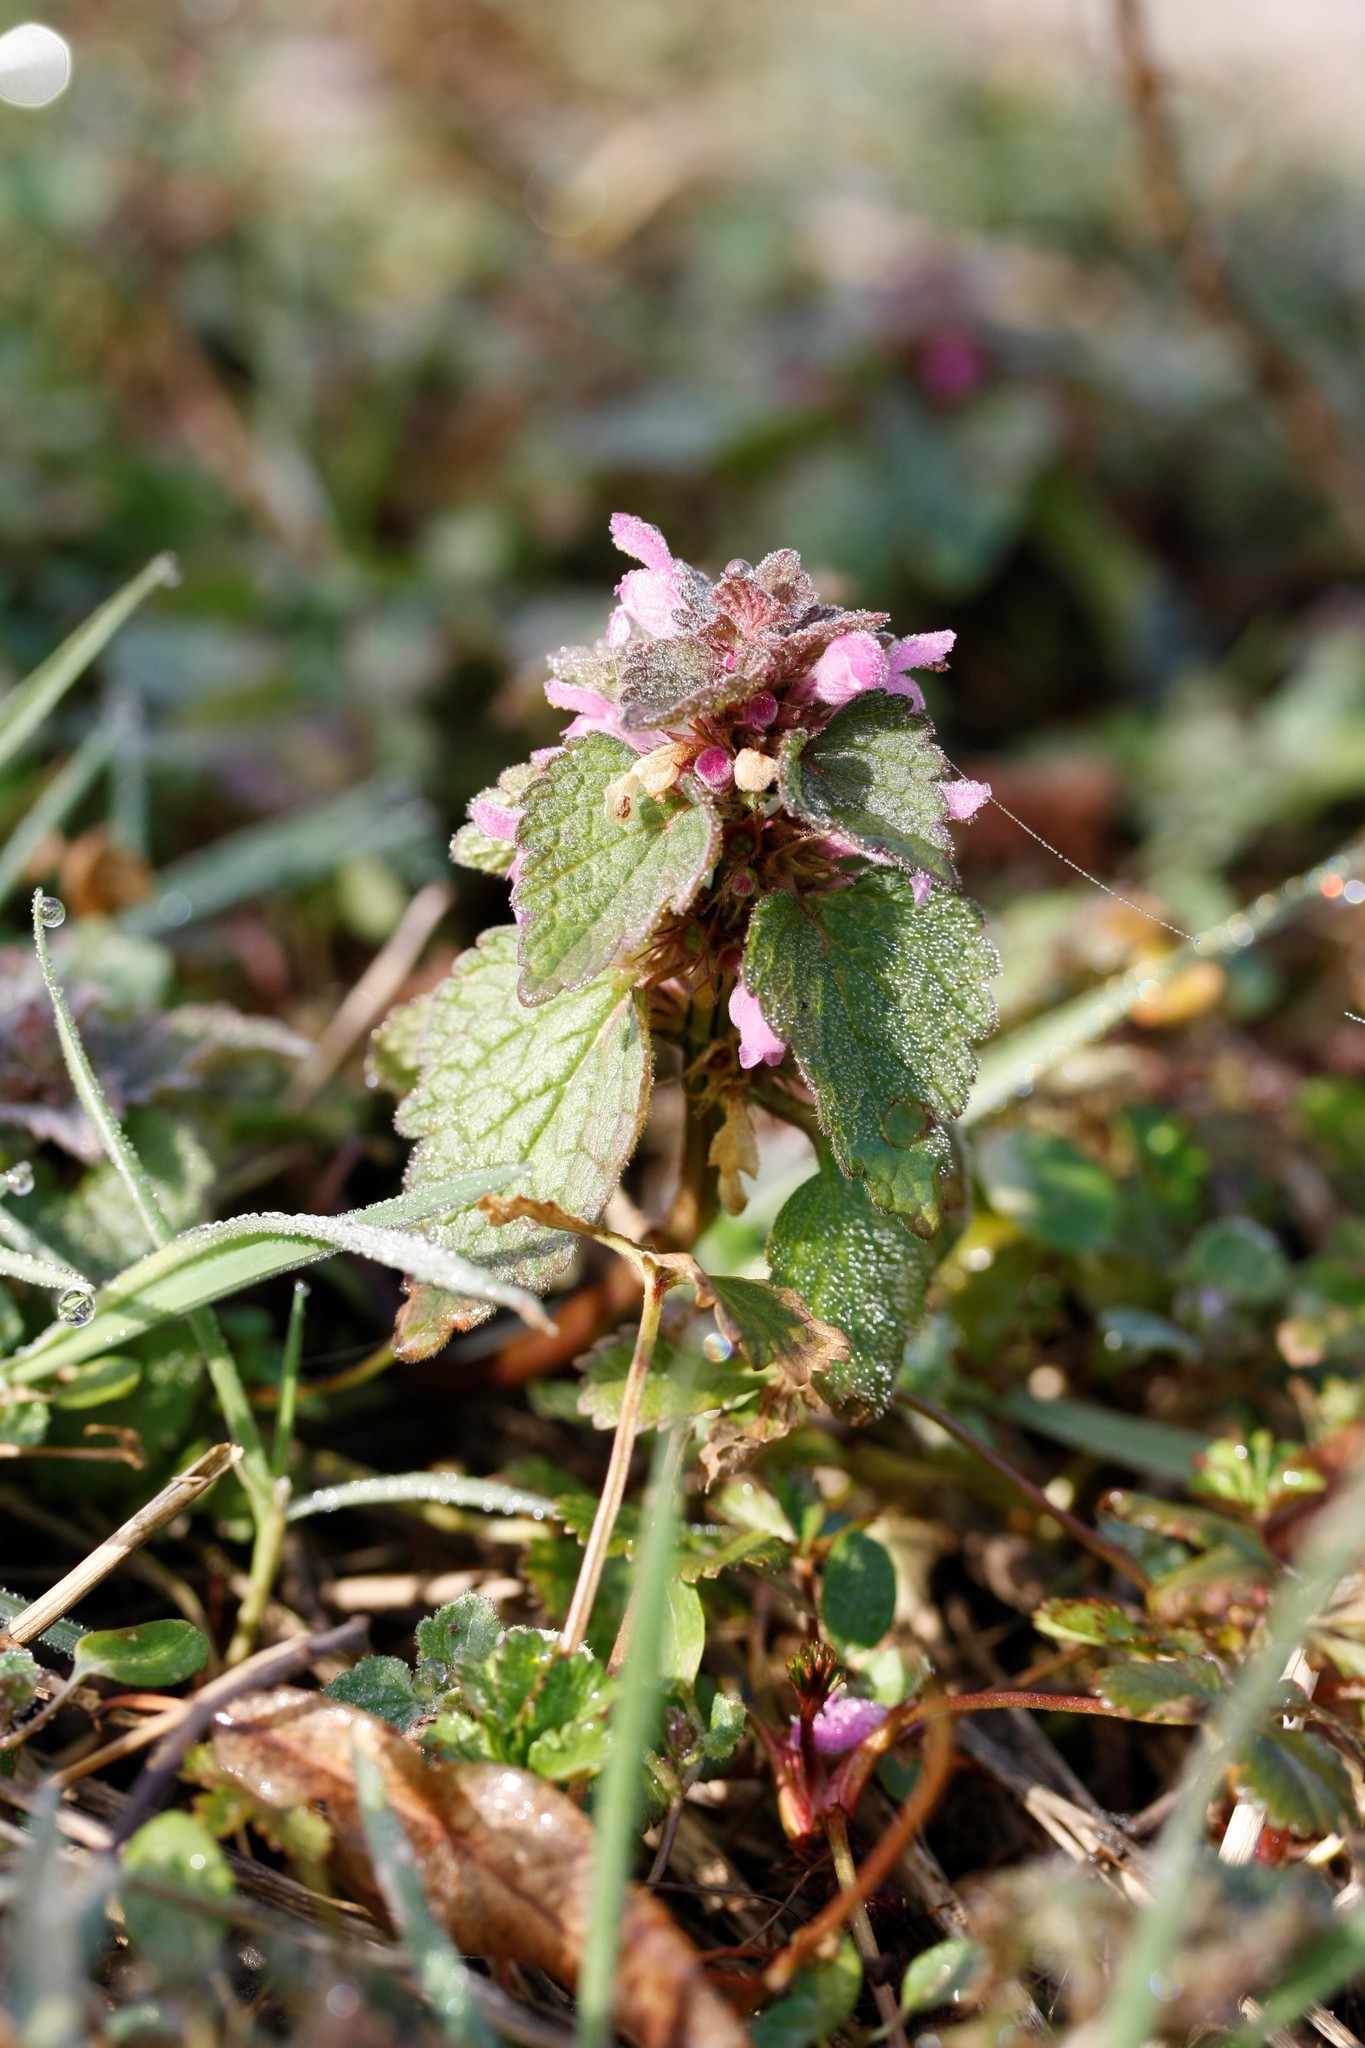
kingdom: Plantae
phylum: Tracheophyta
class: Magnoliopsida
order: Lamiales
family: Lamiaceae
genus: Lamium
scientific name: Lamium purpureum
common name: Red dead-nettle
